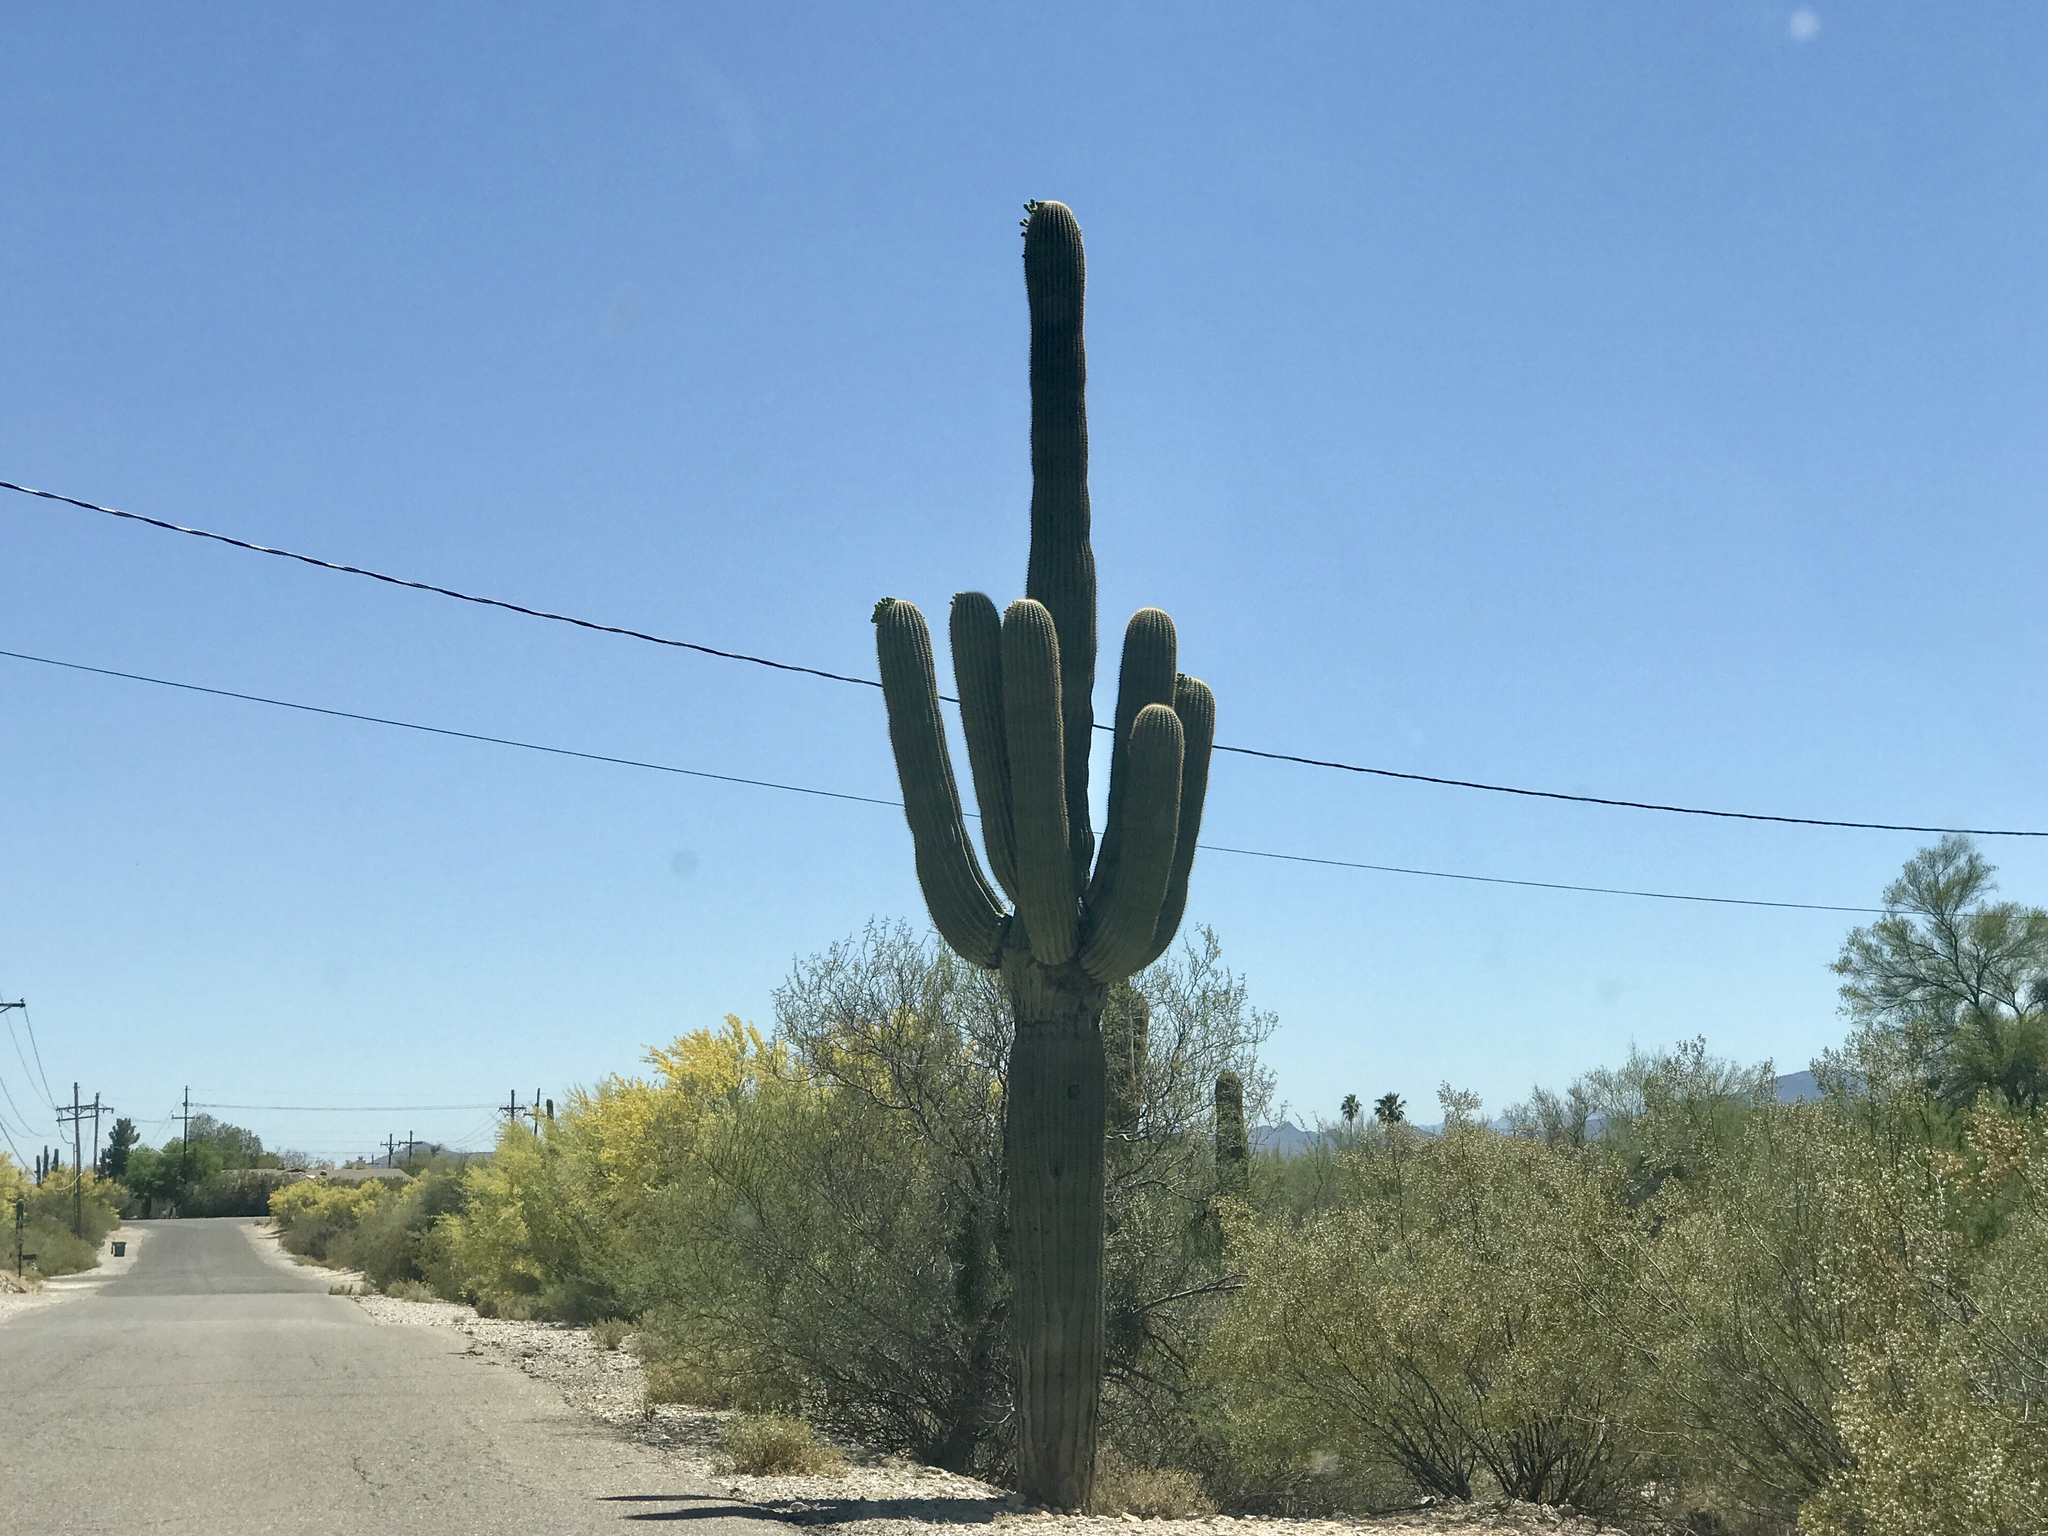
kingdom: Plantae
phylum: Tracheophyta
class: Magnoliopsida
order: Caryophyllales
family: Cactaceae
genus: Carnegiea
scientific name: Carnegiea gigantea
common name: Saguaro
